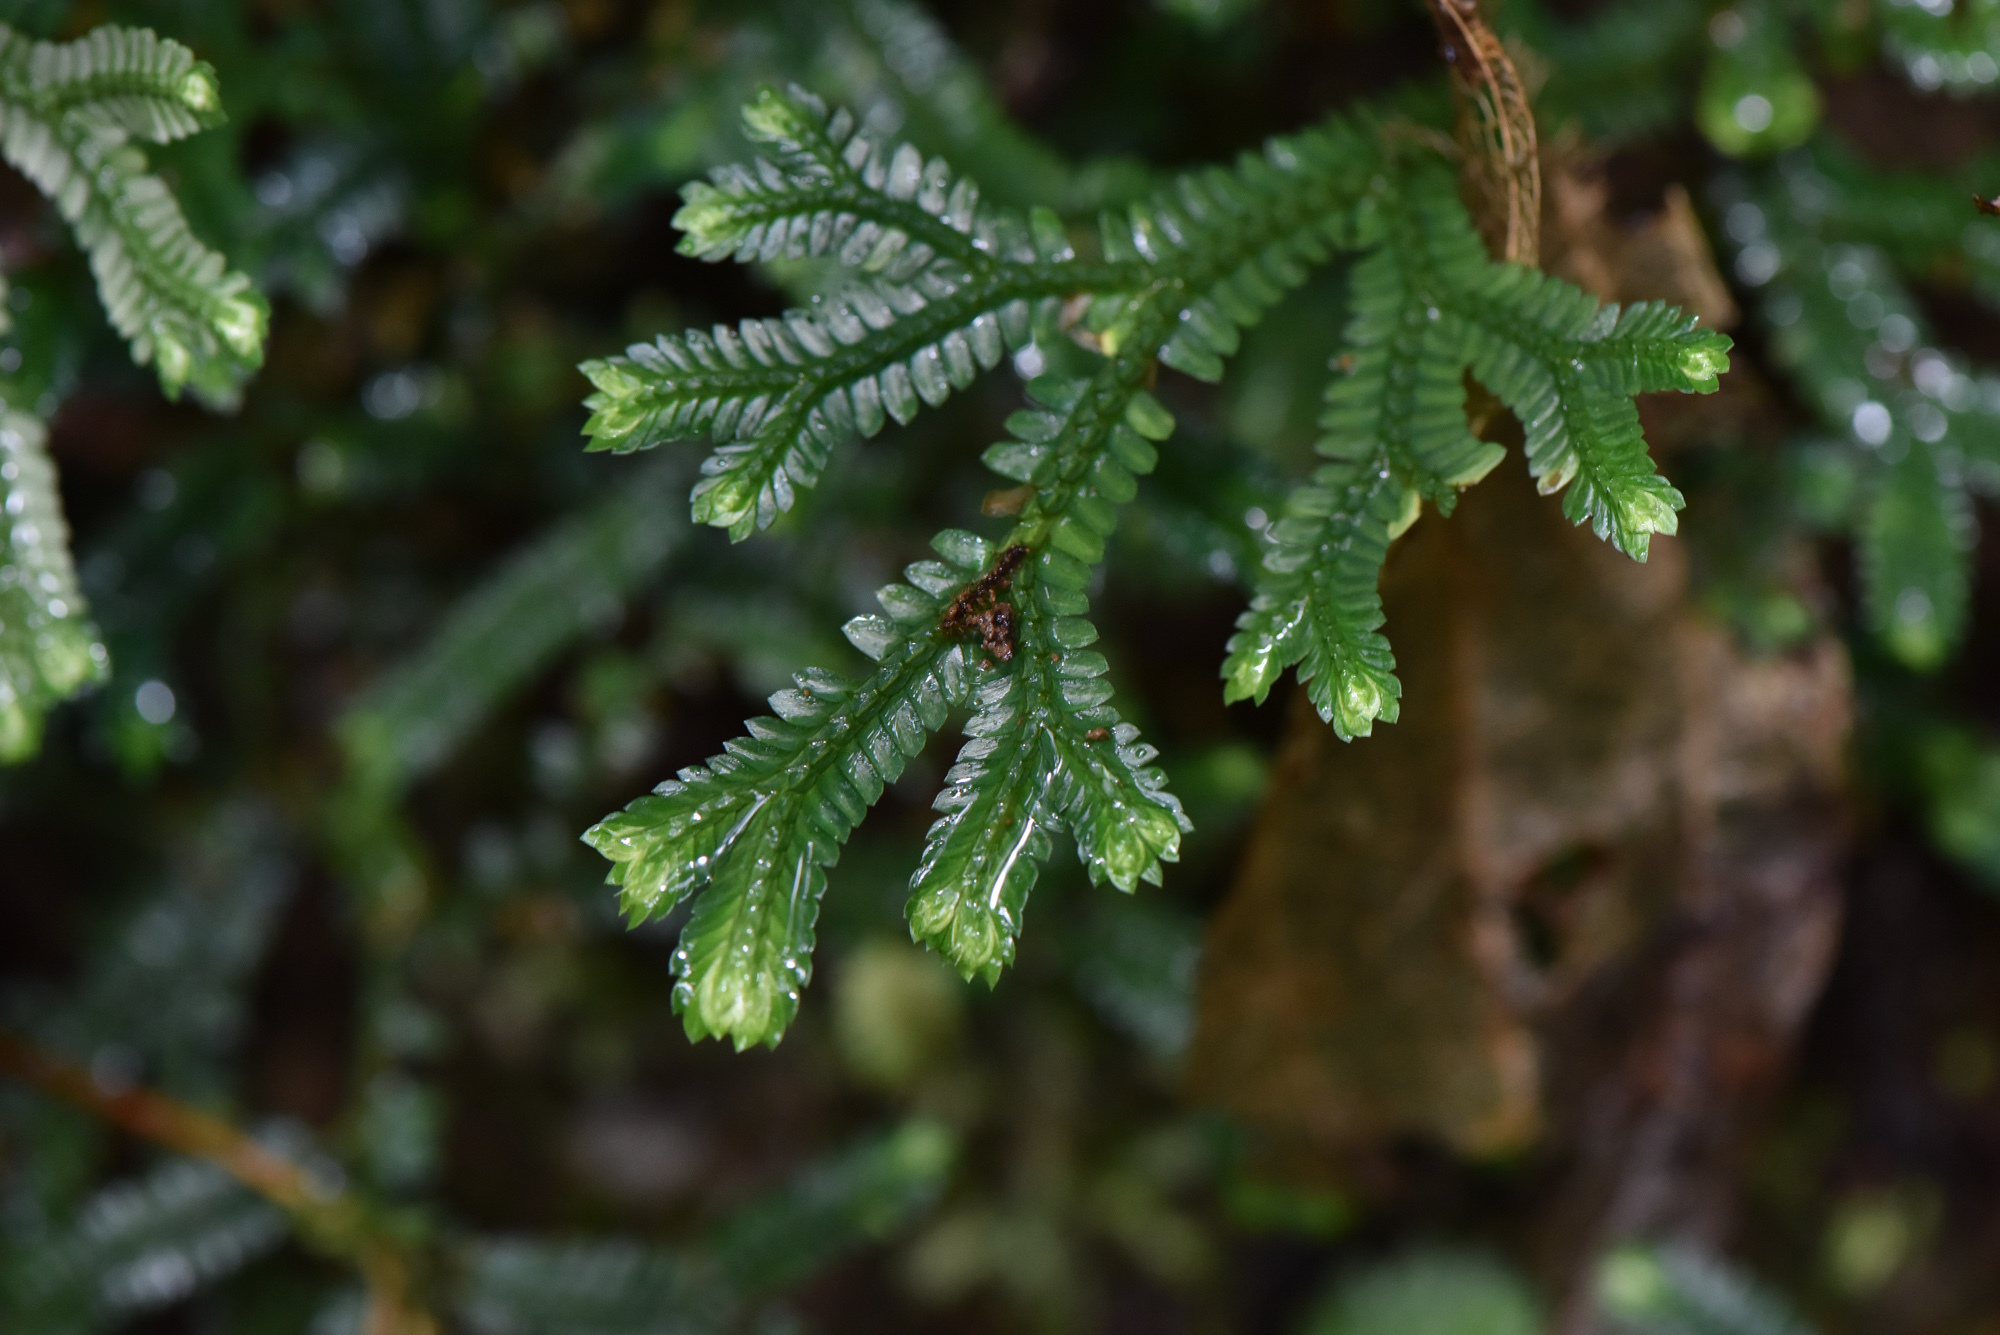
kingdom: Plantae
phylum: Tracheophyta
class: Lycopodiopsida
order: Selaginellales
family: Selaginellaceae
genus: Selaginella
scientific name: Selaginella doederleinii
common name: Greater selaginella
